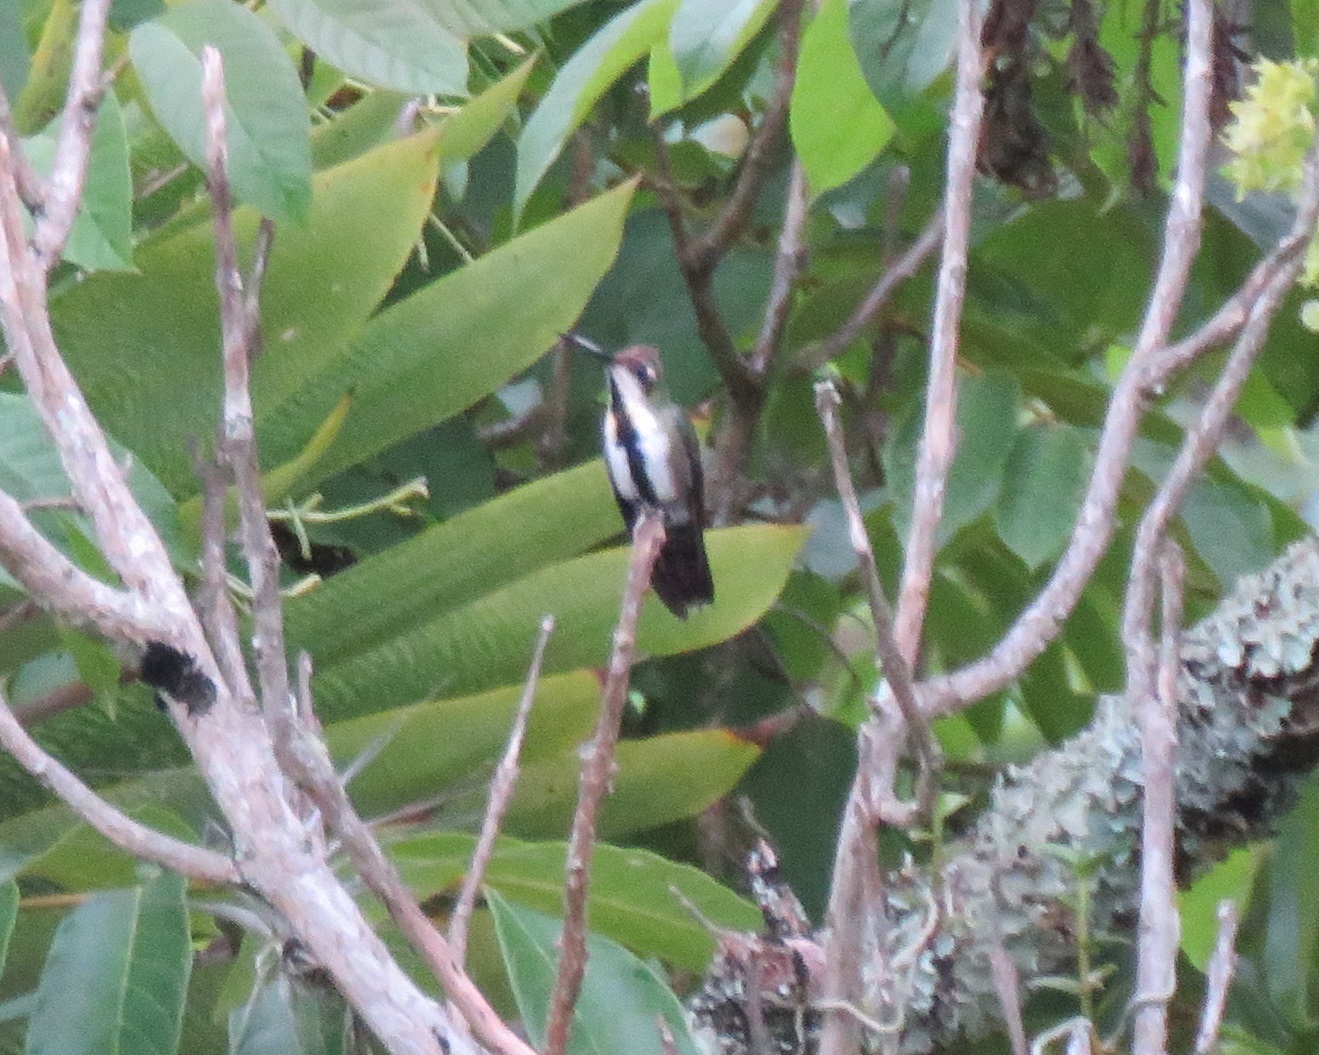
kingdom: Animalia
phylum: Chordata
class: Aves
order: Apodiformes
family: Trochilidae
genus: Anthracothorax
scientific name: Anthracothorax nigricollis
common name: Black-throated mango
